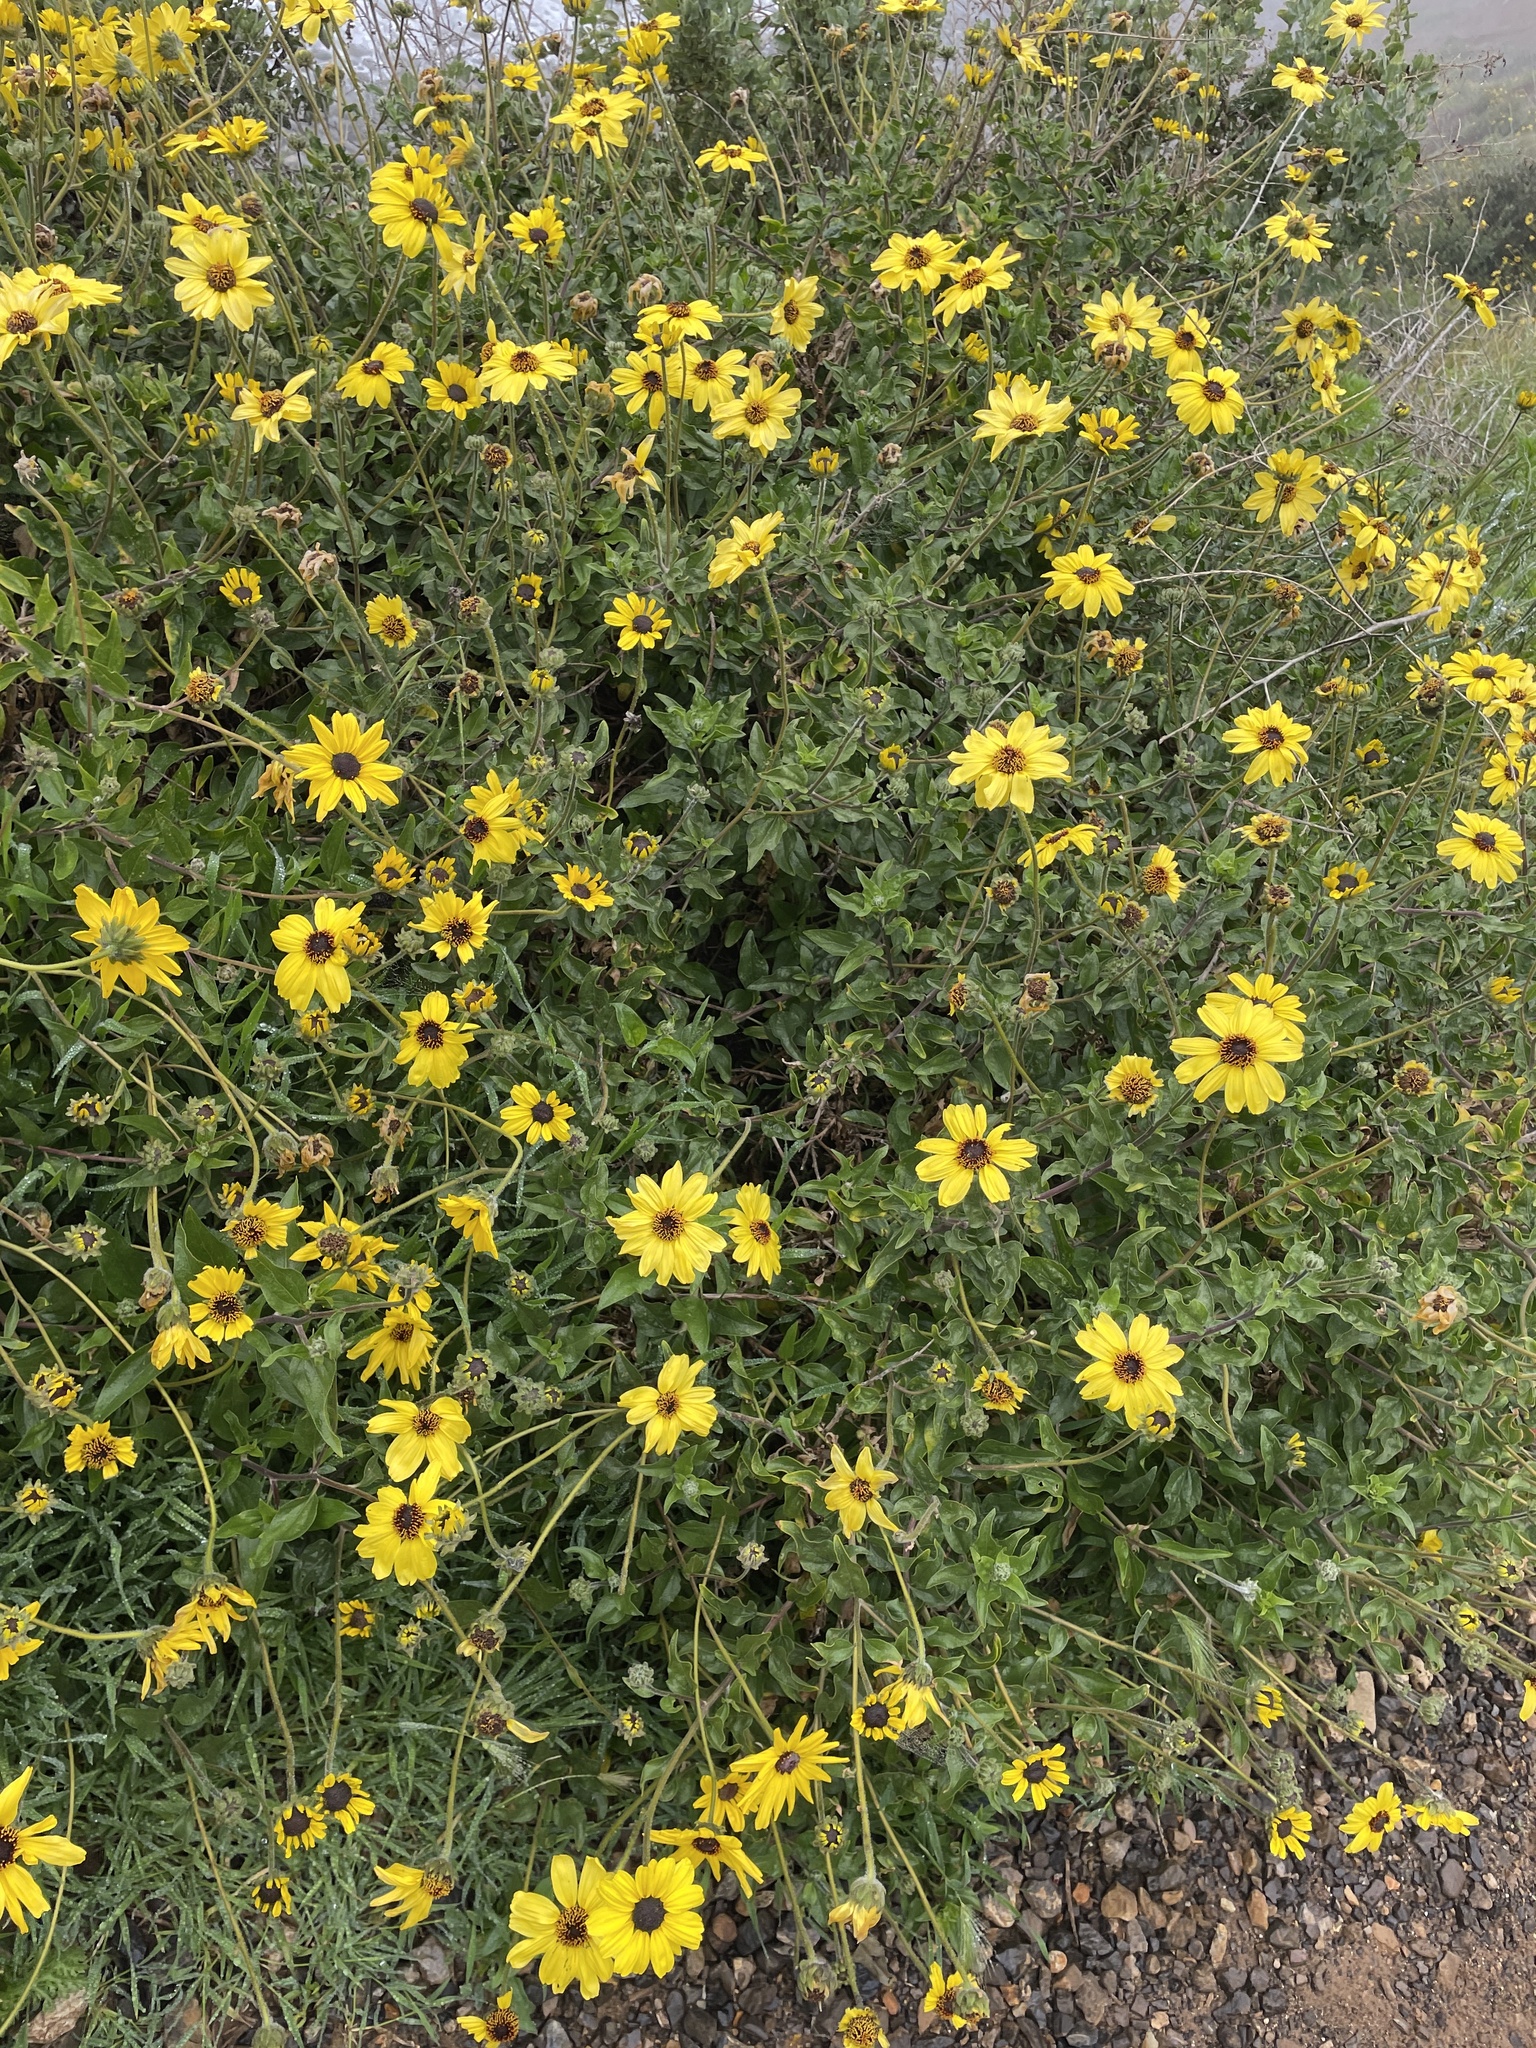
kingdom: Plantae
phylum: Tracheophyta
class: Magnoliopsida
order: Asterales
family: Asteraceae
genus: Encelia
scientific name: Encelia californica
